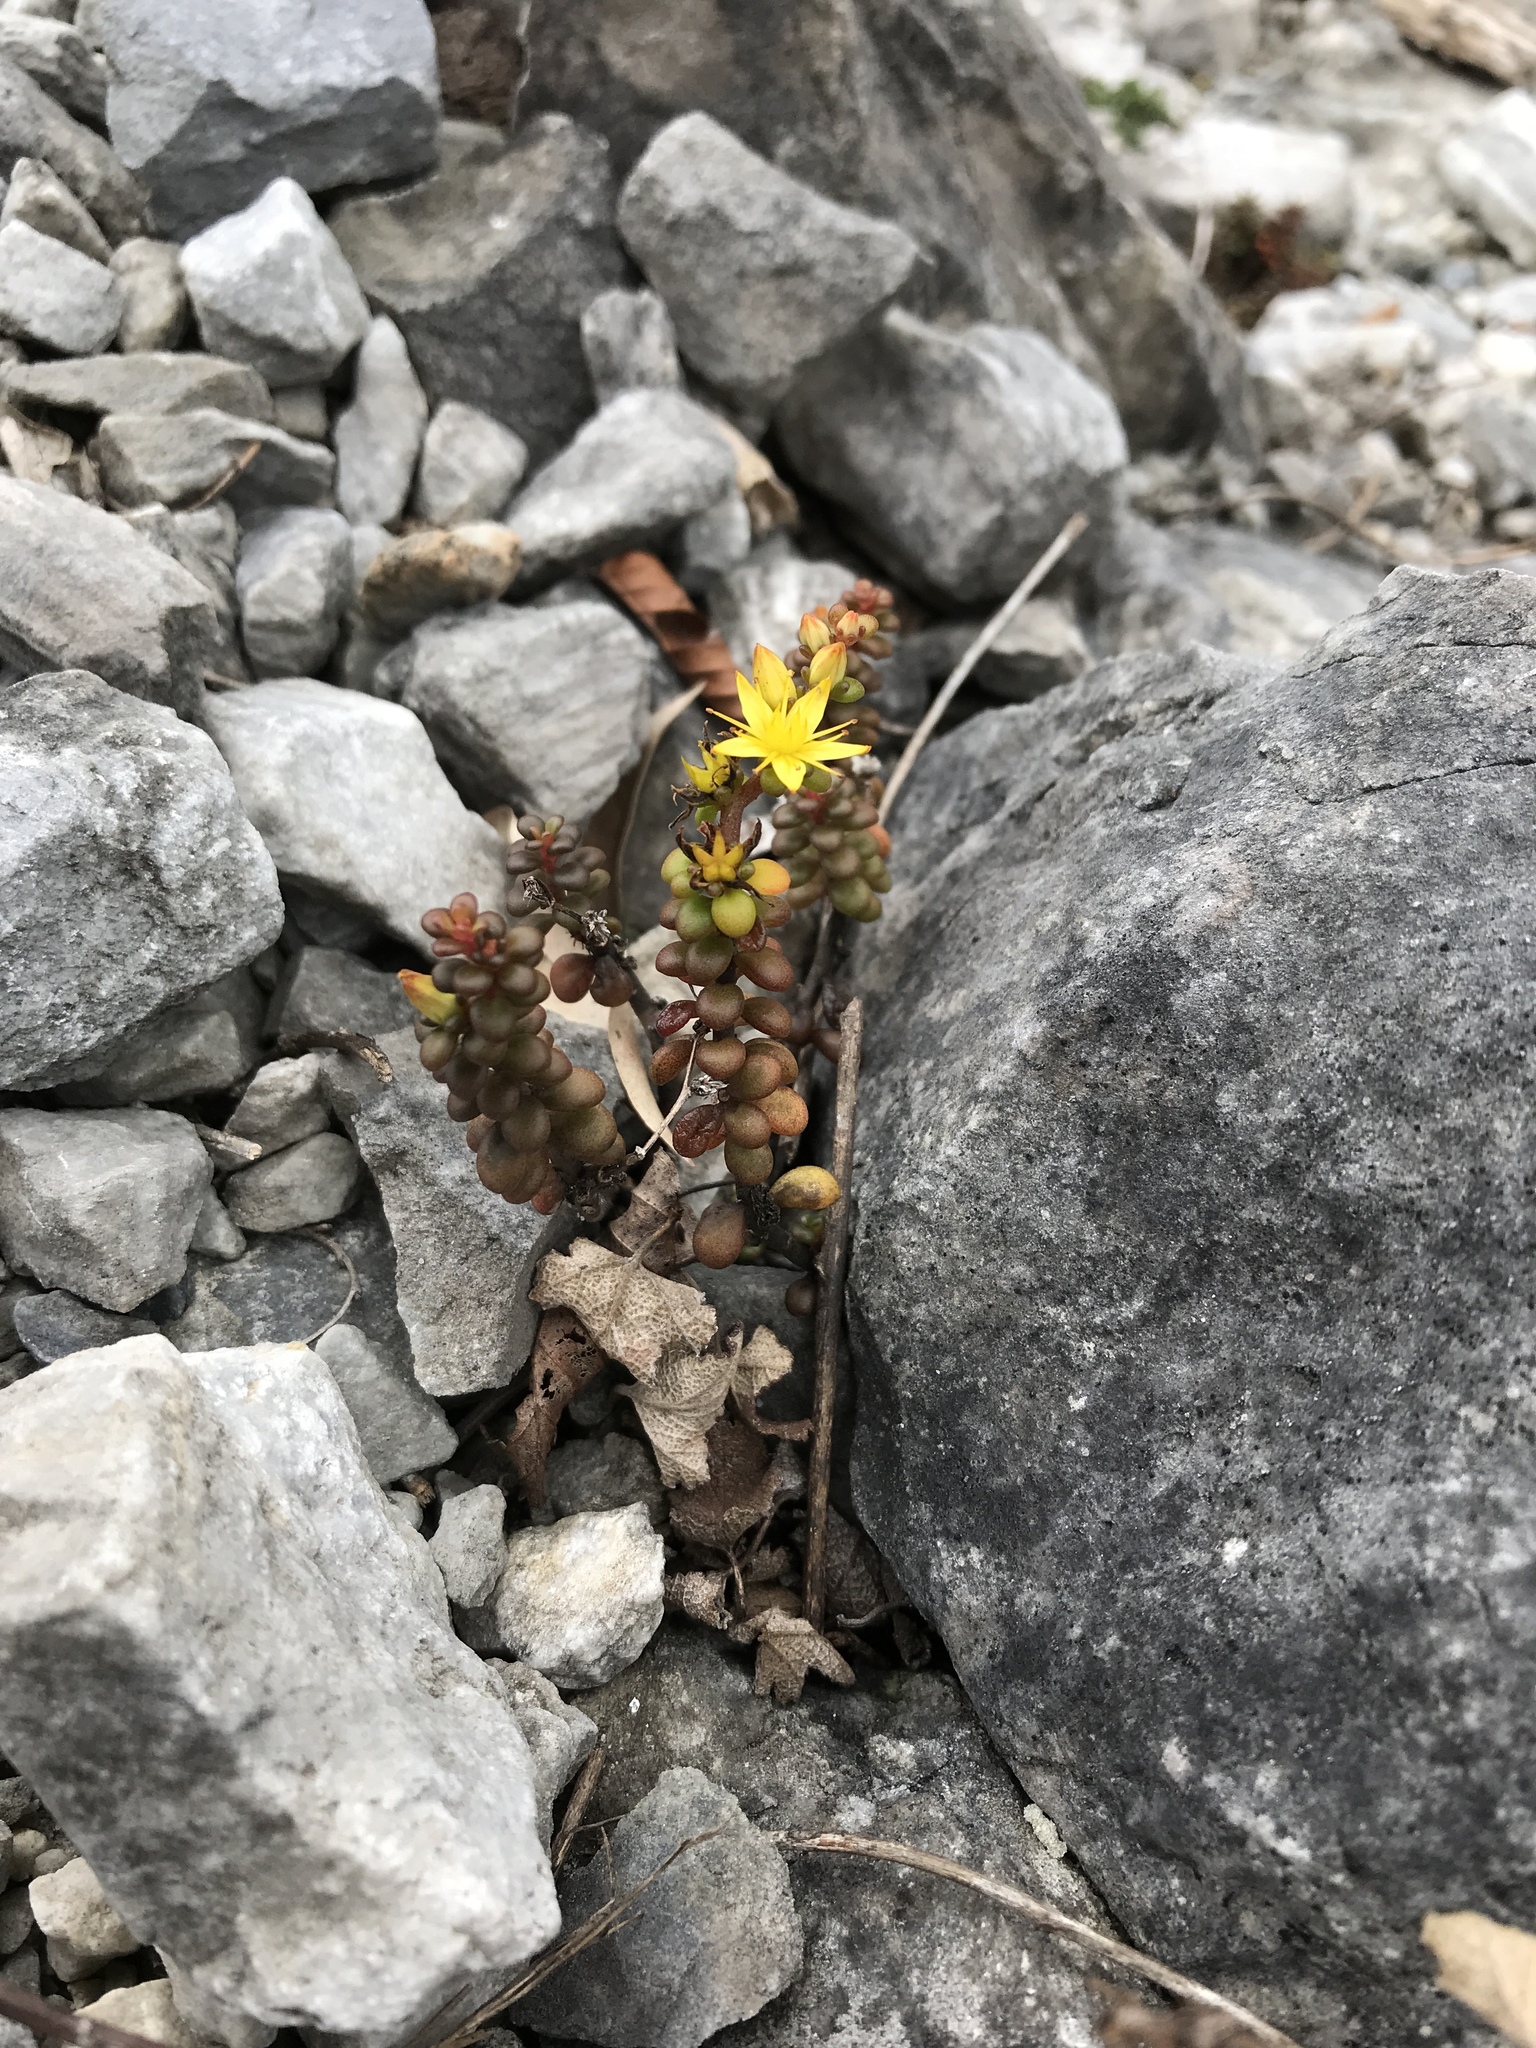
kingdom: Plantae
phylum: Tracheophyta
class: Magnoliopsida
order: Saxifragales
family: Crassulaceae
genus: Sedum
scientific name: Sedum tarokoense
